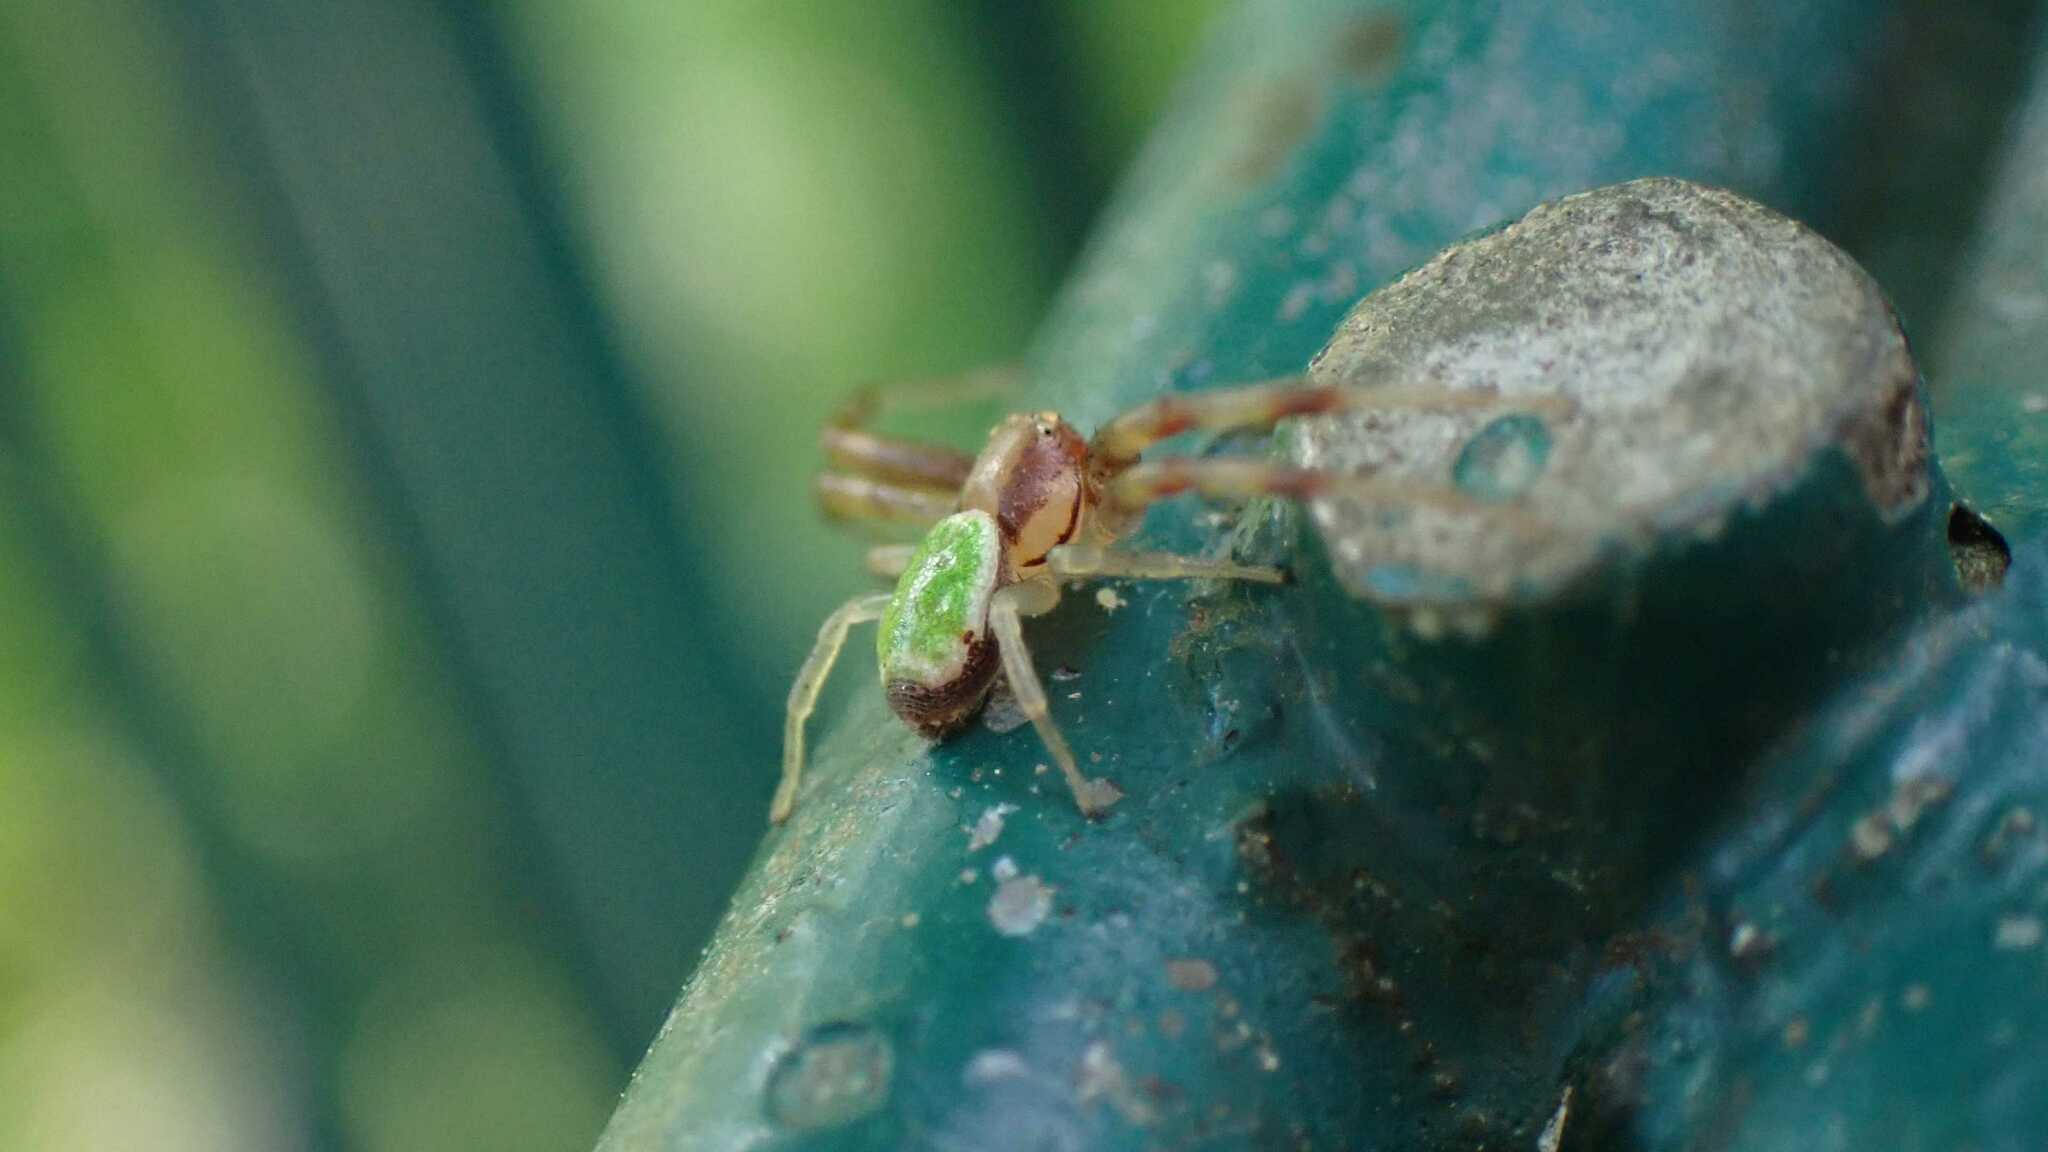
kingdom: Animalia
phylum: Arthropoda
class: Arachnida
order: Araneae
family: Thomisidae
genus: Ebrechtella
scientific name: Ebrechtella tricuspidata
